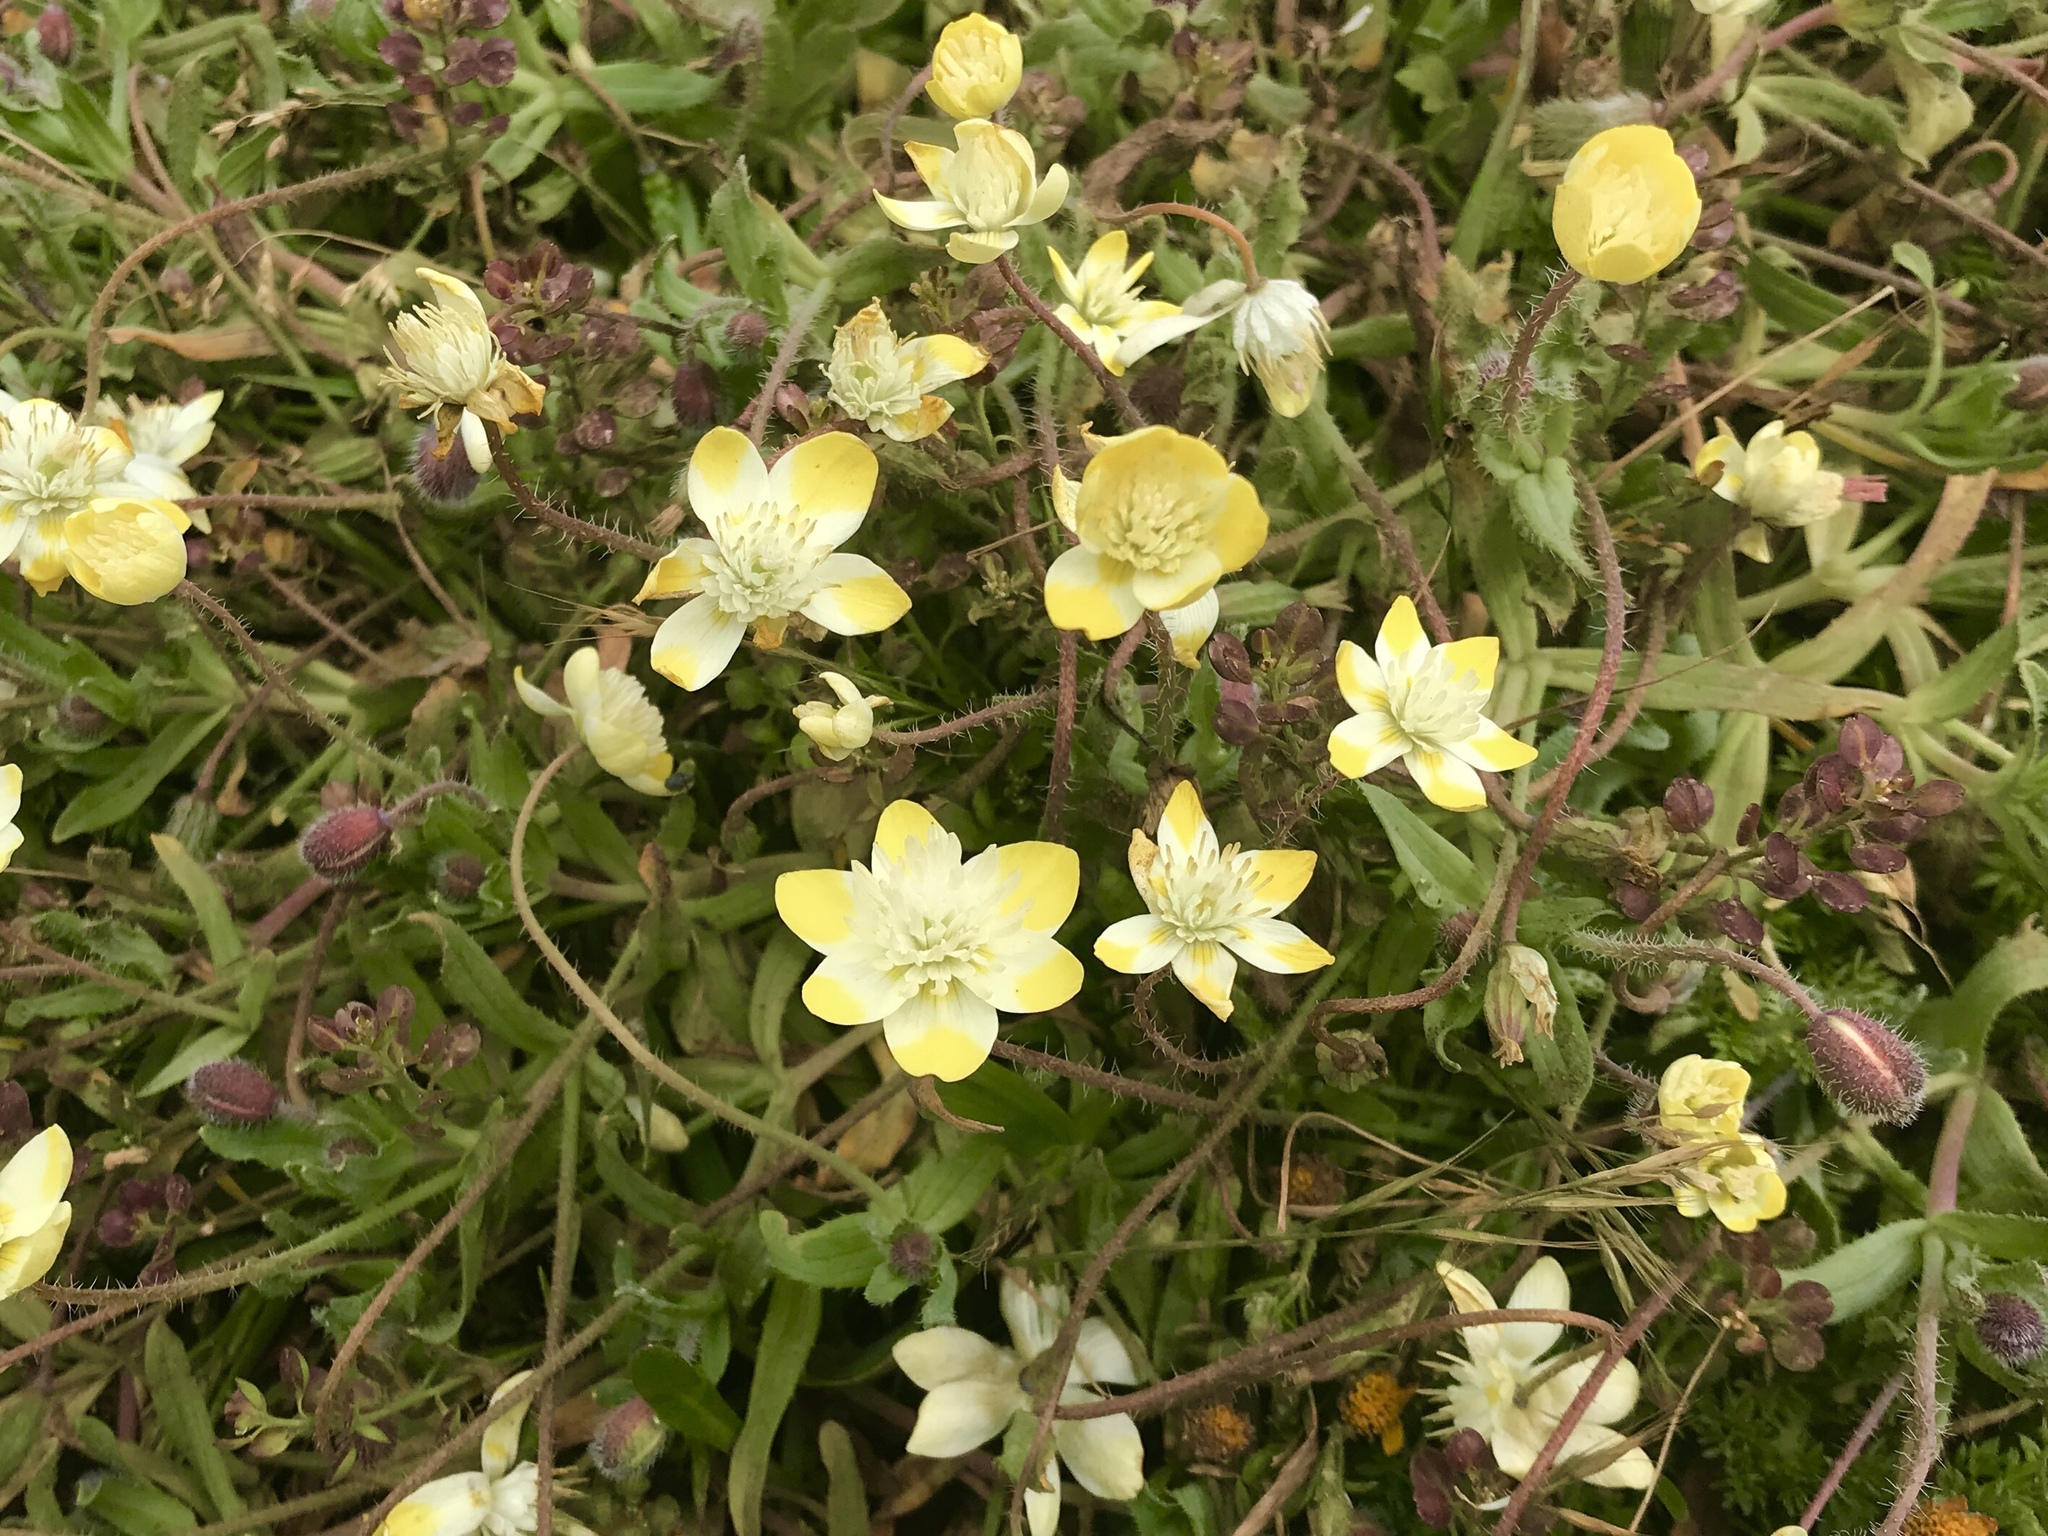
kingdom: Plantae
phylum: Tracheophyta
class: Magnoliopsida
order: Ranunculales
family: Papaveraceae
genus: Platystemon
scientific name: Platystemon californicus
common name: Cream-cups
